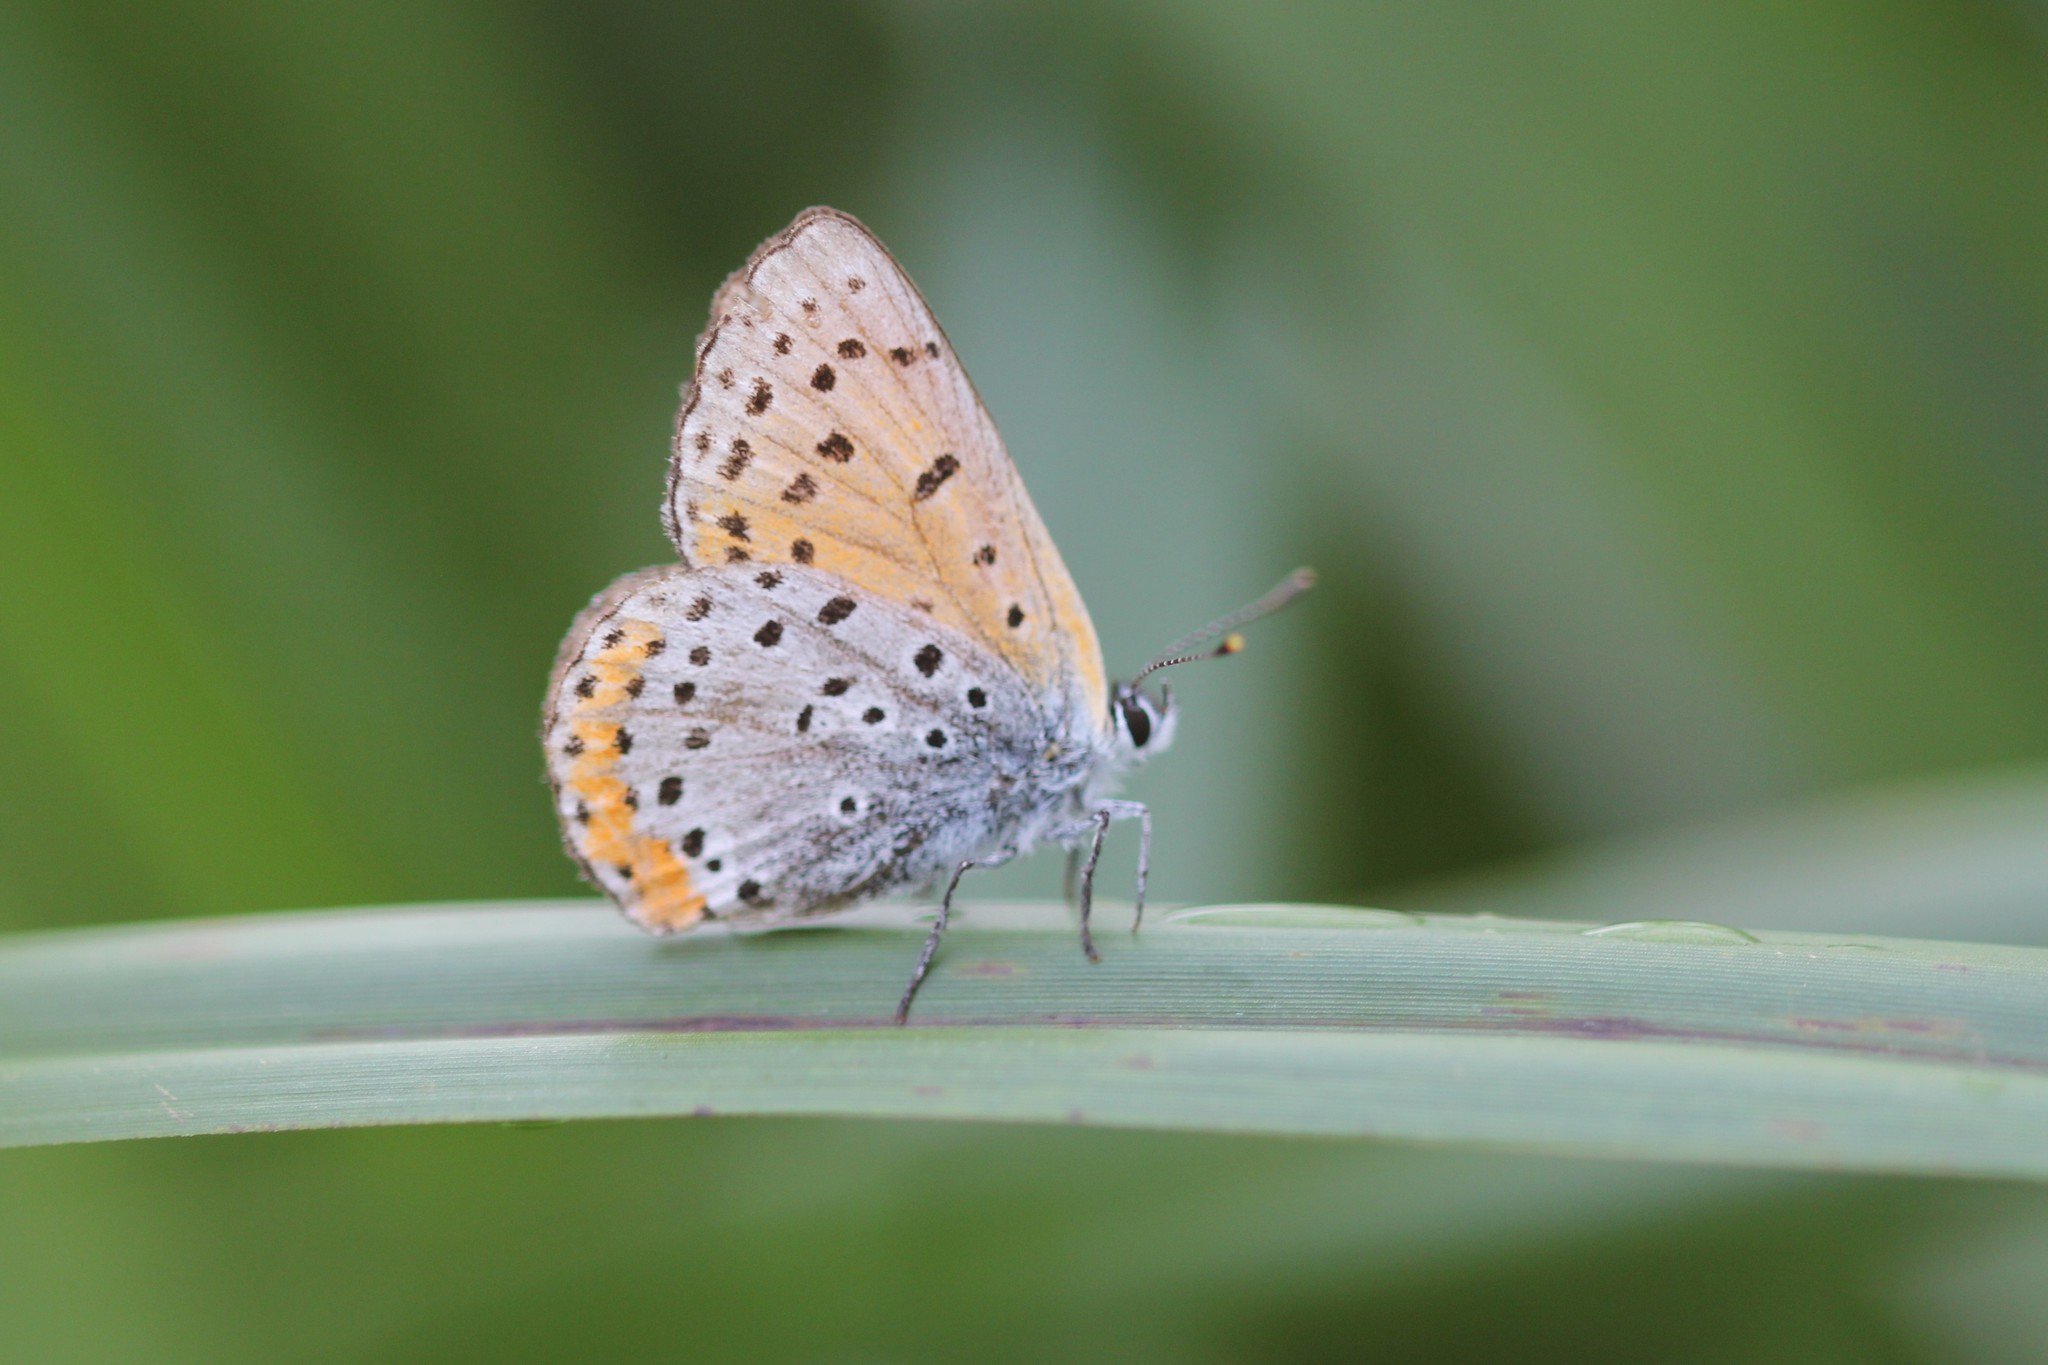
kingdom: Animalia
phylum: Arthropoda
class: Insecta
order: Lepidoptera
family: Lycaenidae
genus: Tharsalea
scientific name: Tharsalea hyllus
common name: Bronze copper
